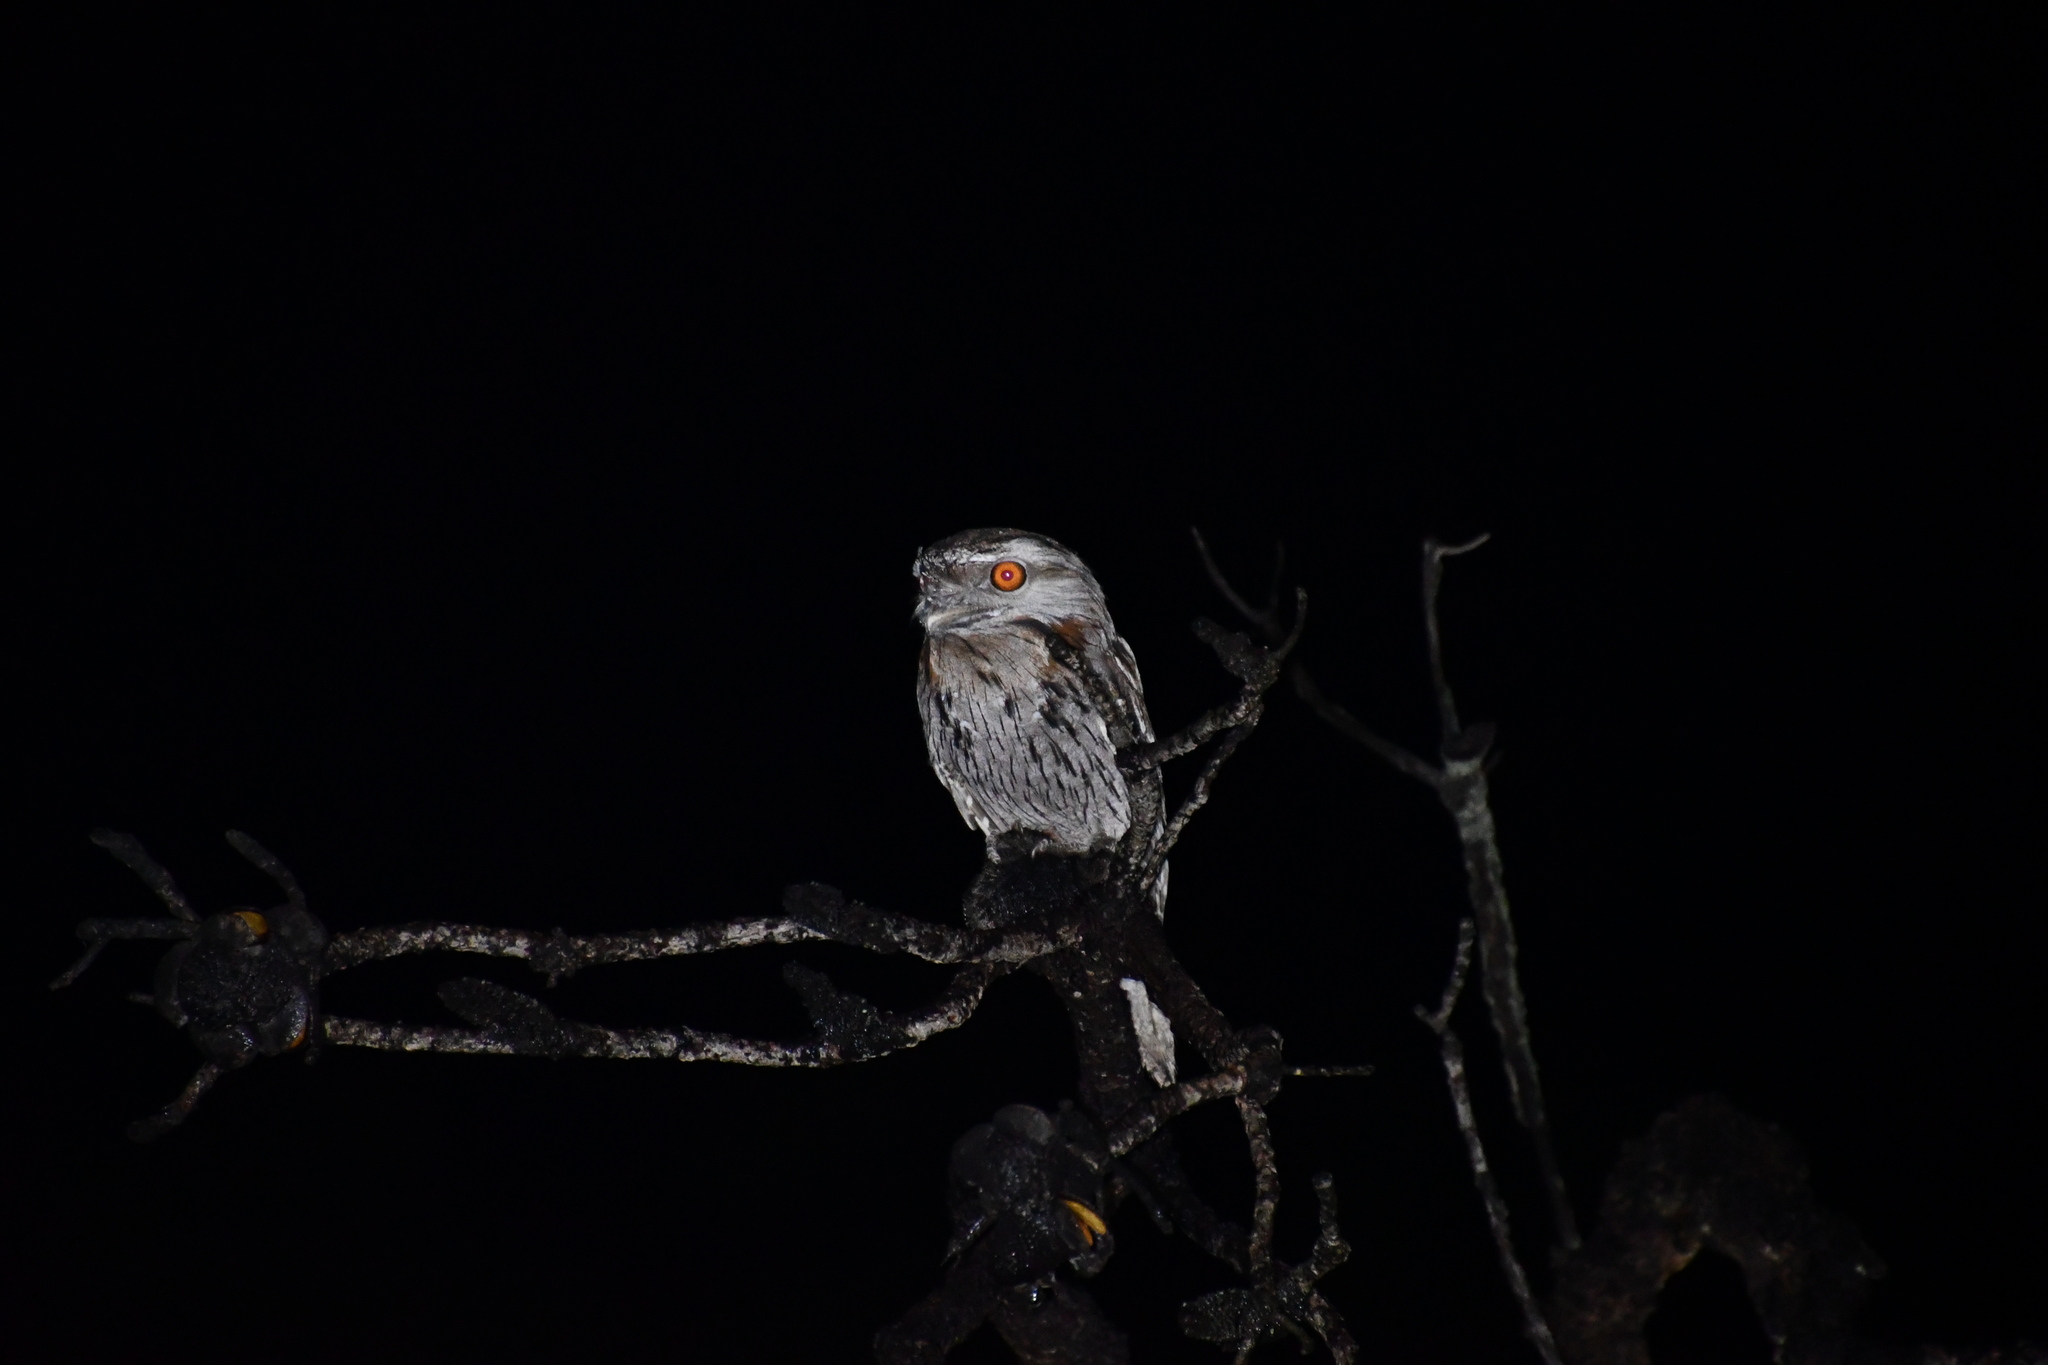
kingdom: Animalia
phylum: Chordata
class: Aves
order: Caprimulgiformes
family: Podargidae
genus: Podargus
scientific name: Podargus strigoides
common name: Tawny frogmouth
